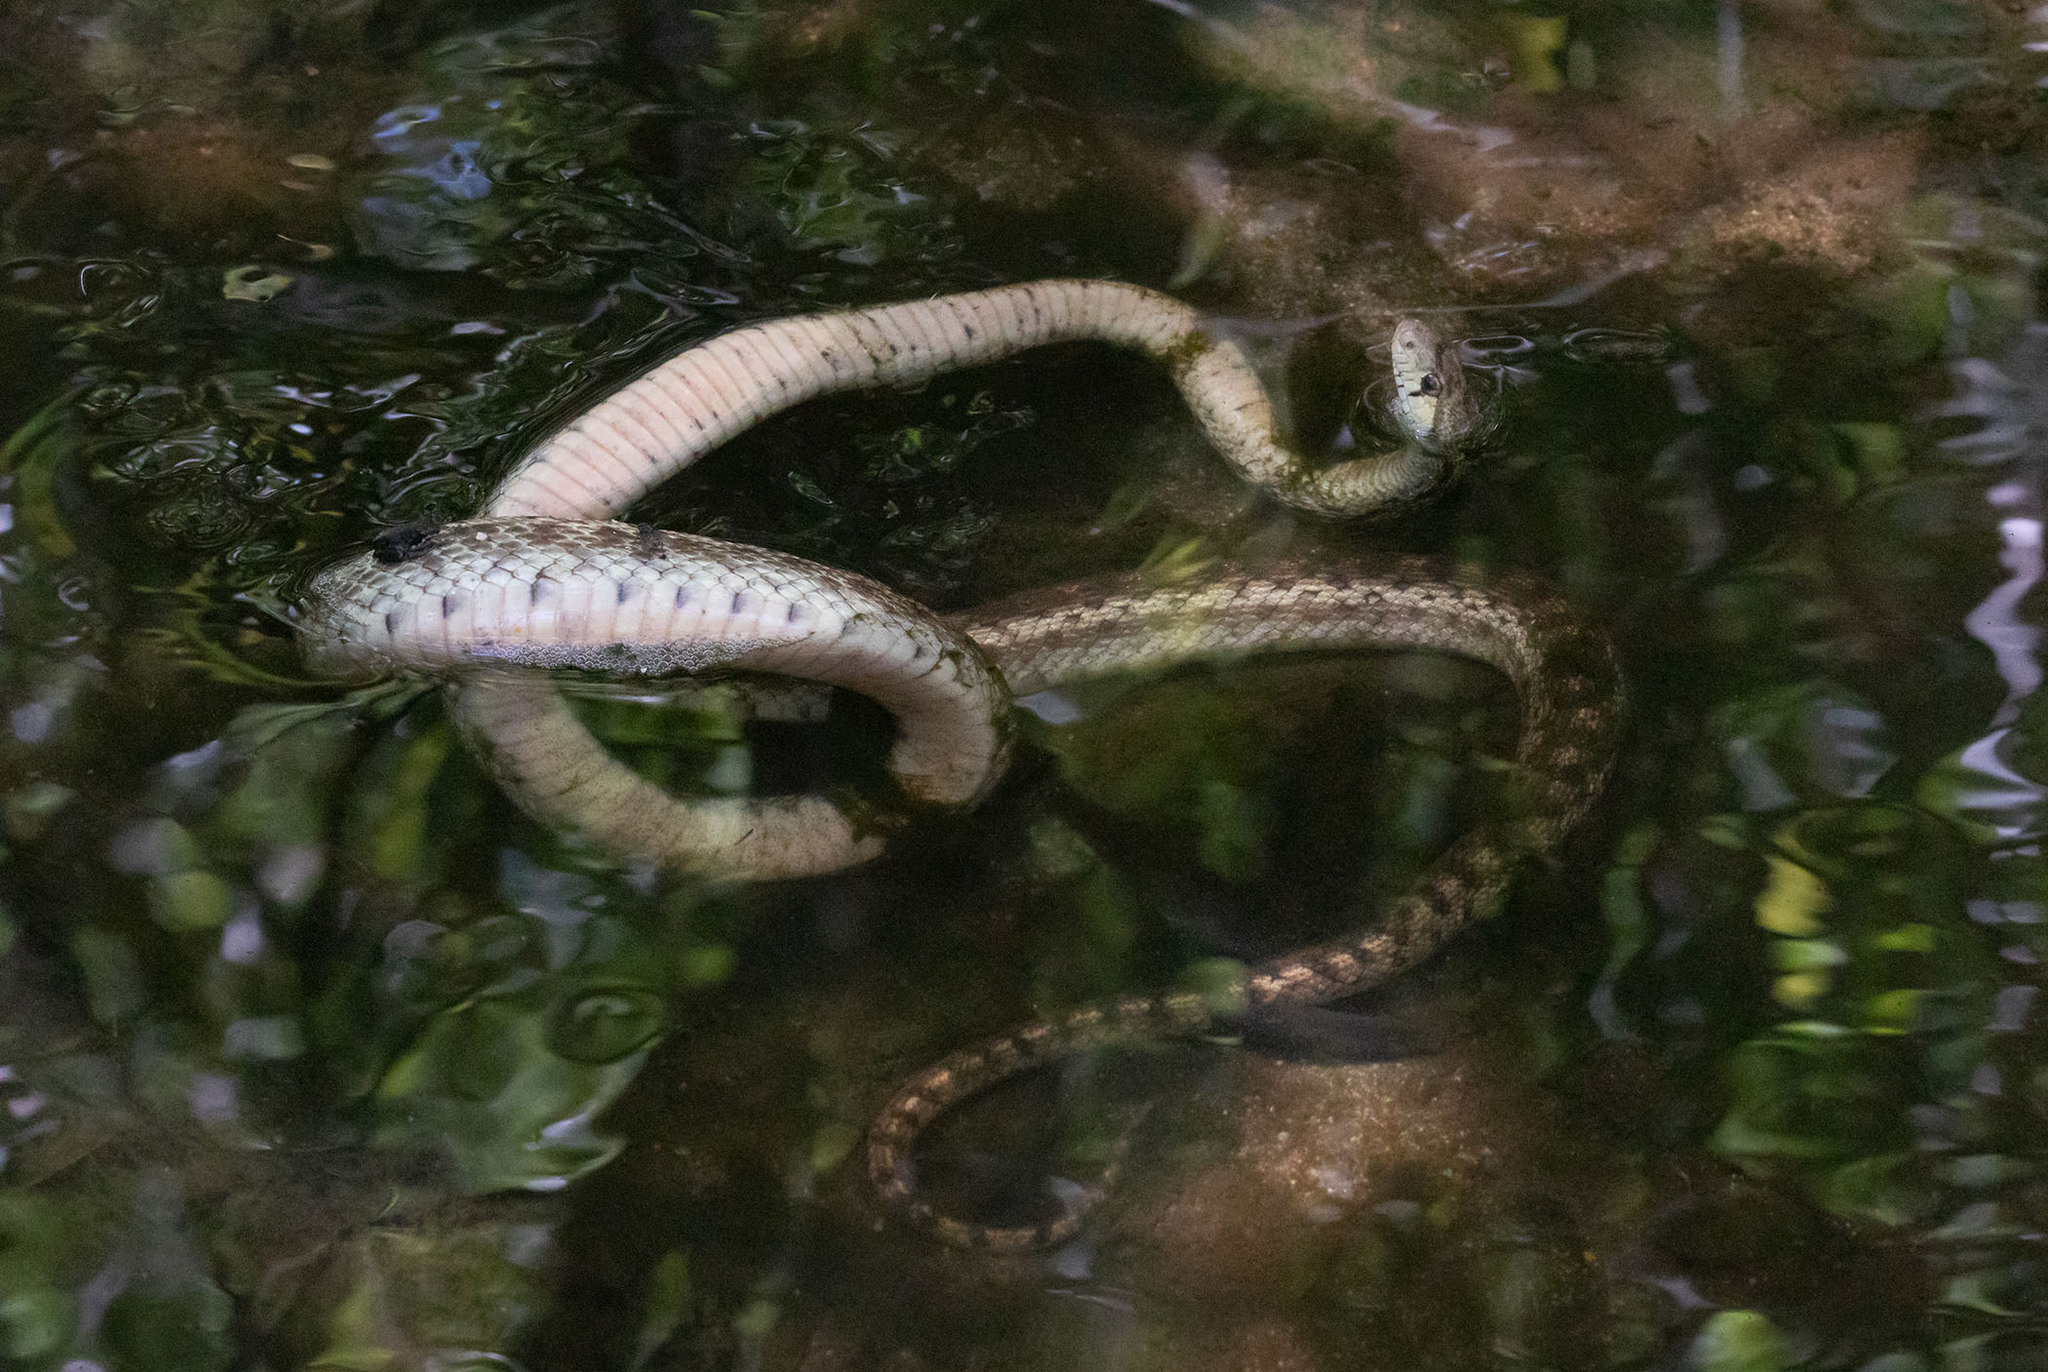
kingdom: Animalia
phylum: Chordata
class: Squamata
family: Colubridae
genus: Pituophis
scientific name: Pituophis catenifer
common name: Gopher snake
